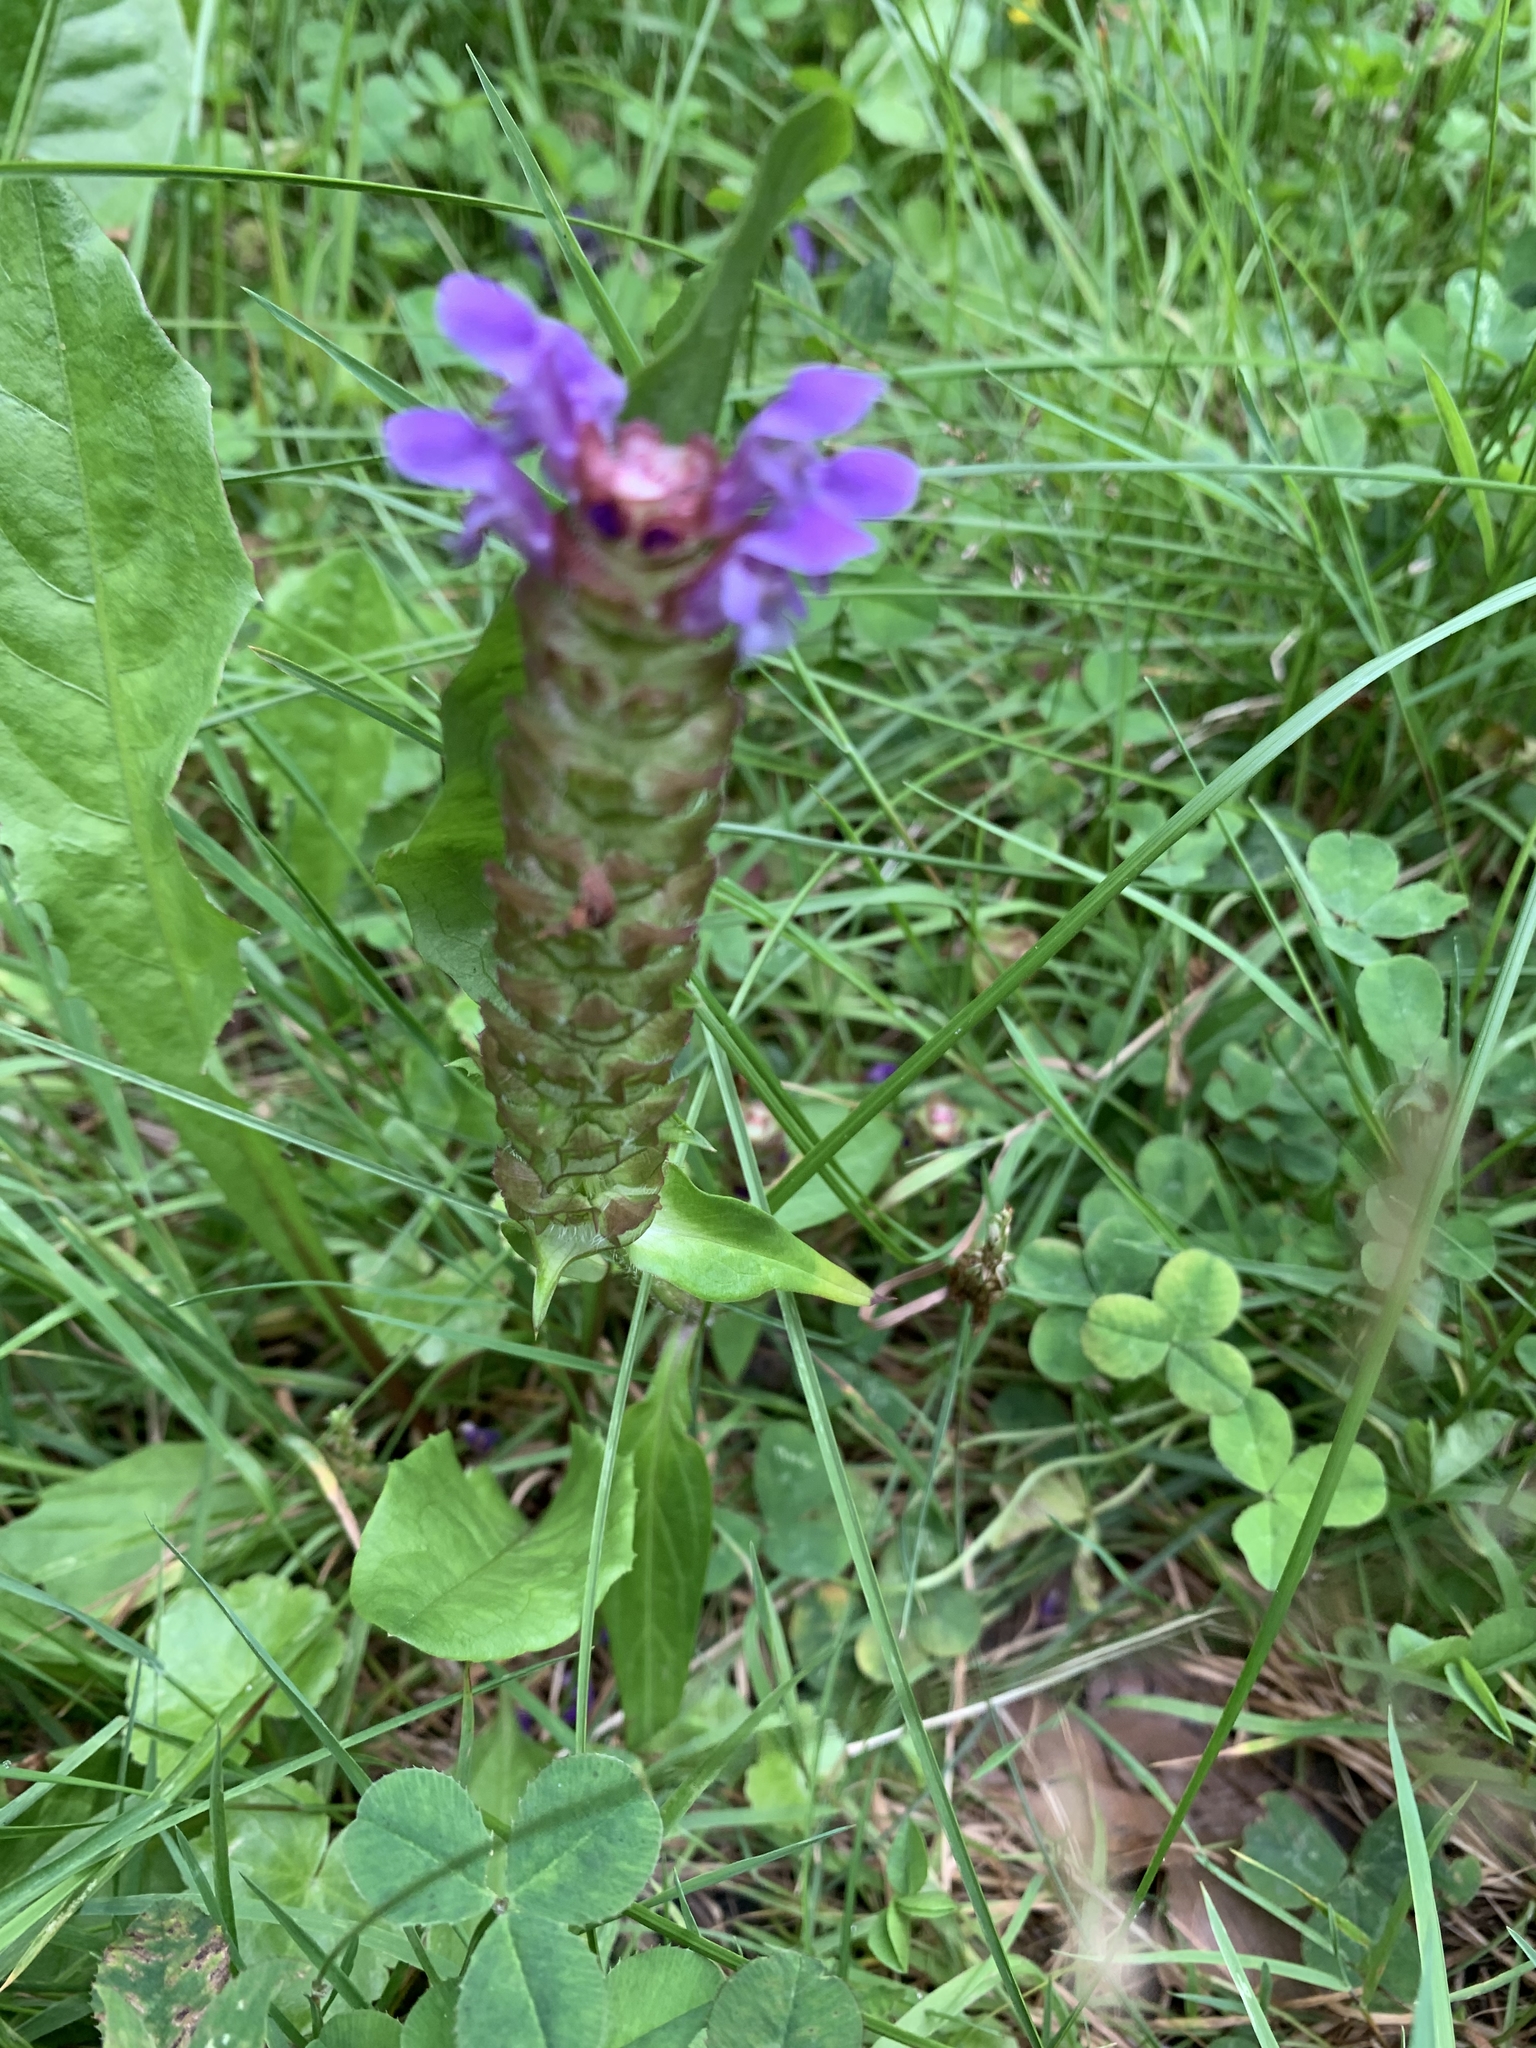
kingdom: Plantae
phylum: Tracheophyta
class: Magnoliopsida
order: Lamiales
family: Lamiaceae
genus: Prunella
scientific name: Prunella vulgaris
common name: Heal-all
